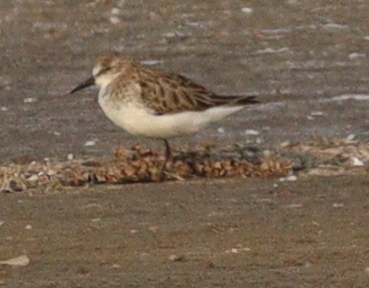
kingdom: Animalia
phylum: Chordata
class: Aves
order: Charadriiformes
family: Scolopacidae
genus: Calidris
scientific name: Calidris minuta
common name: Little stint
